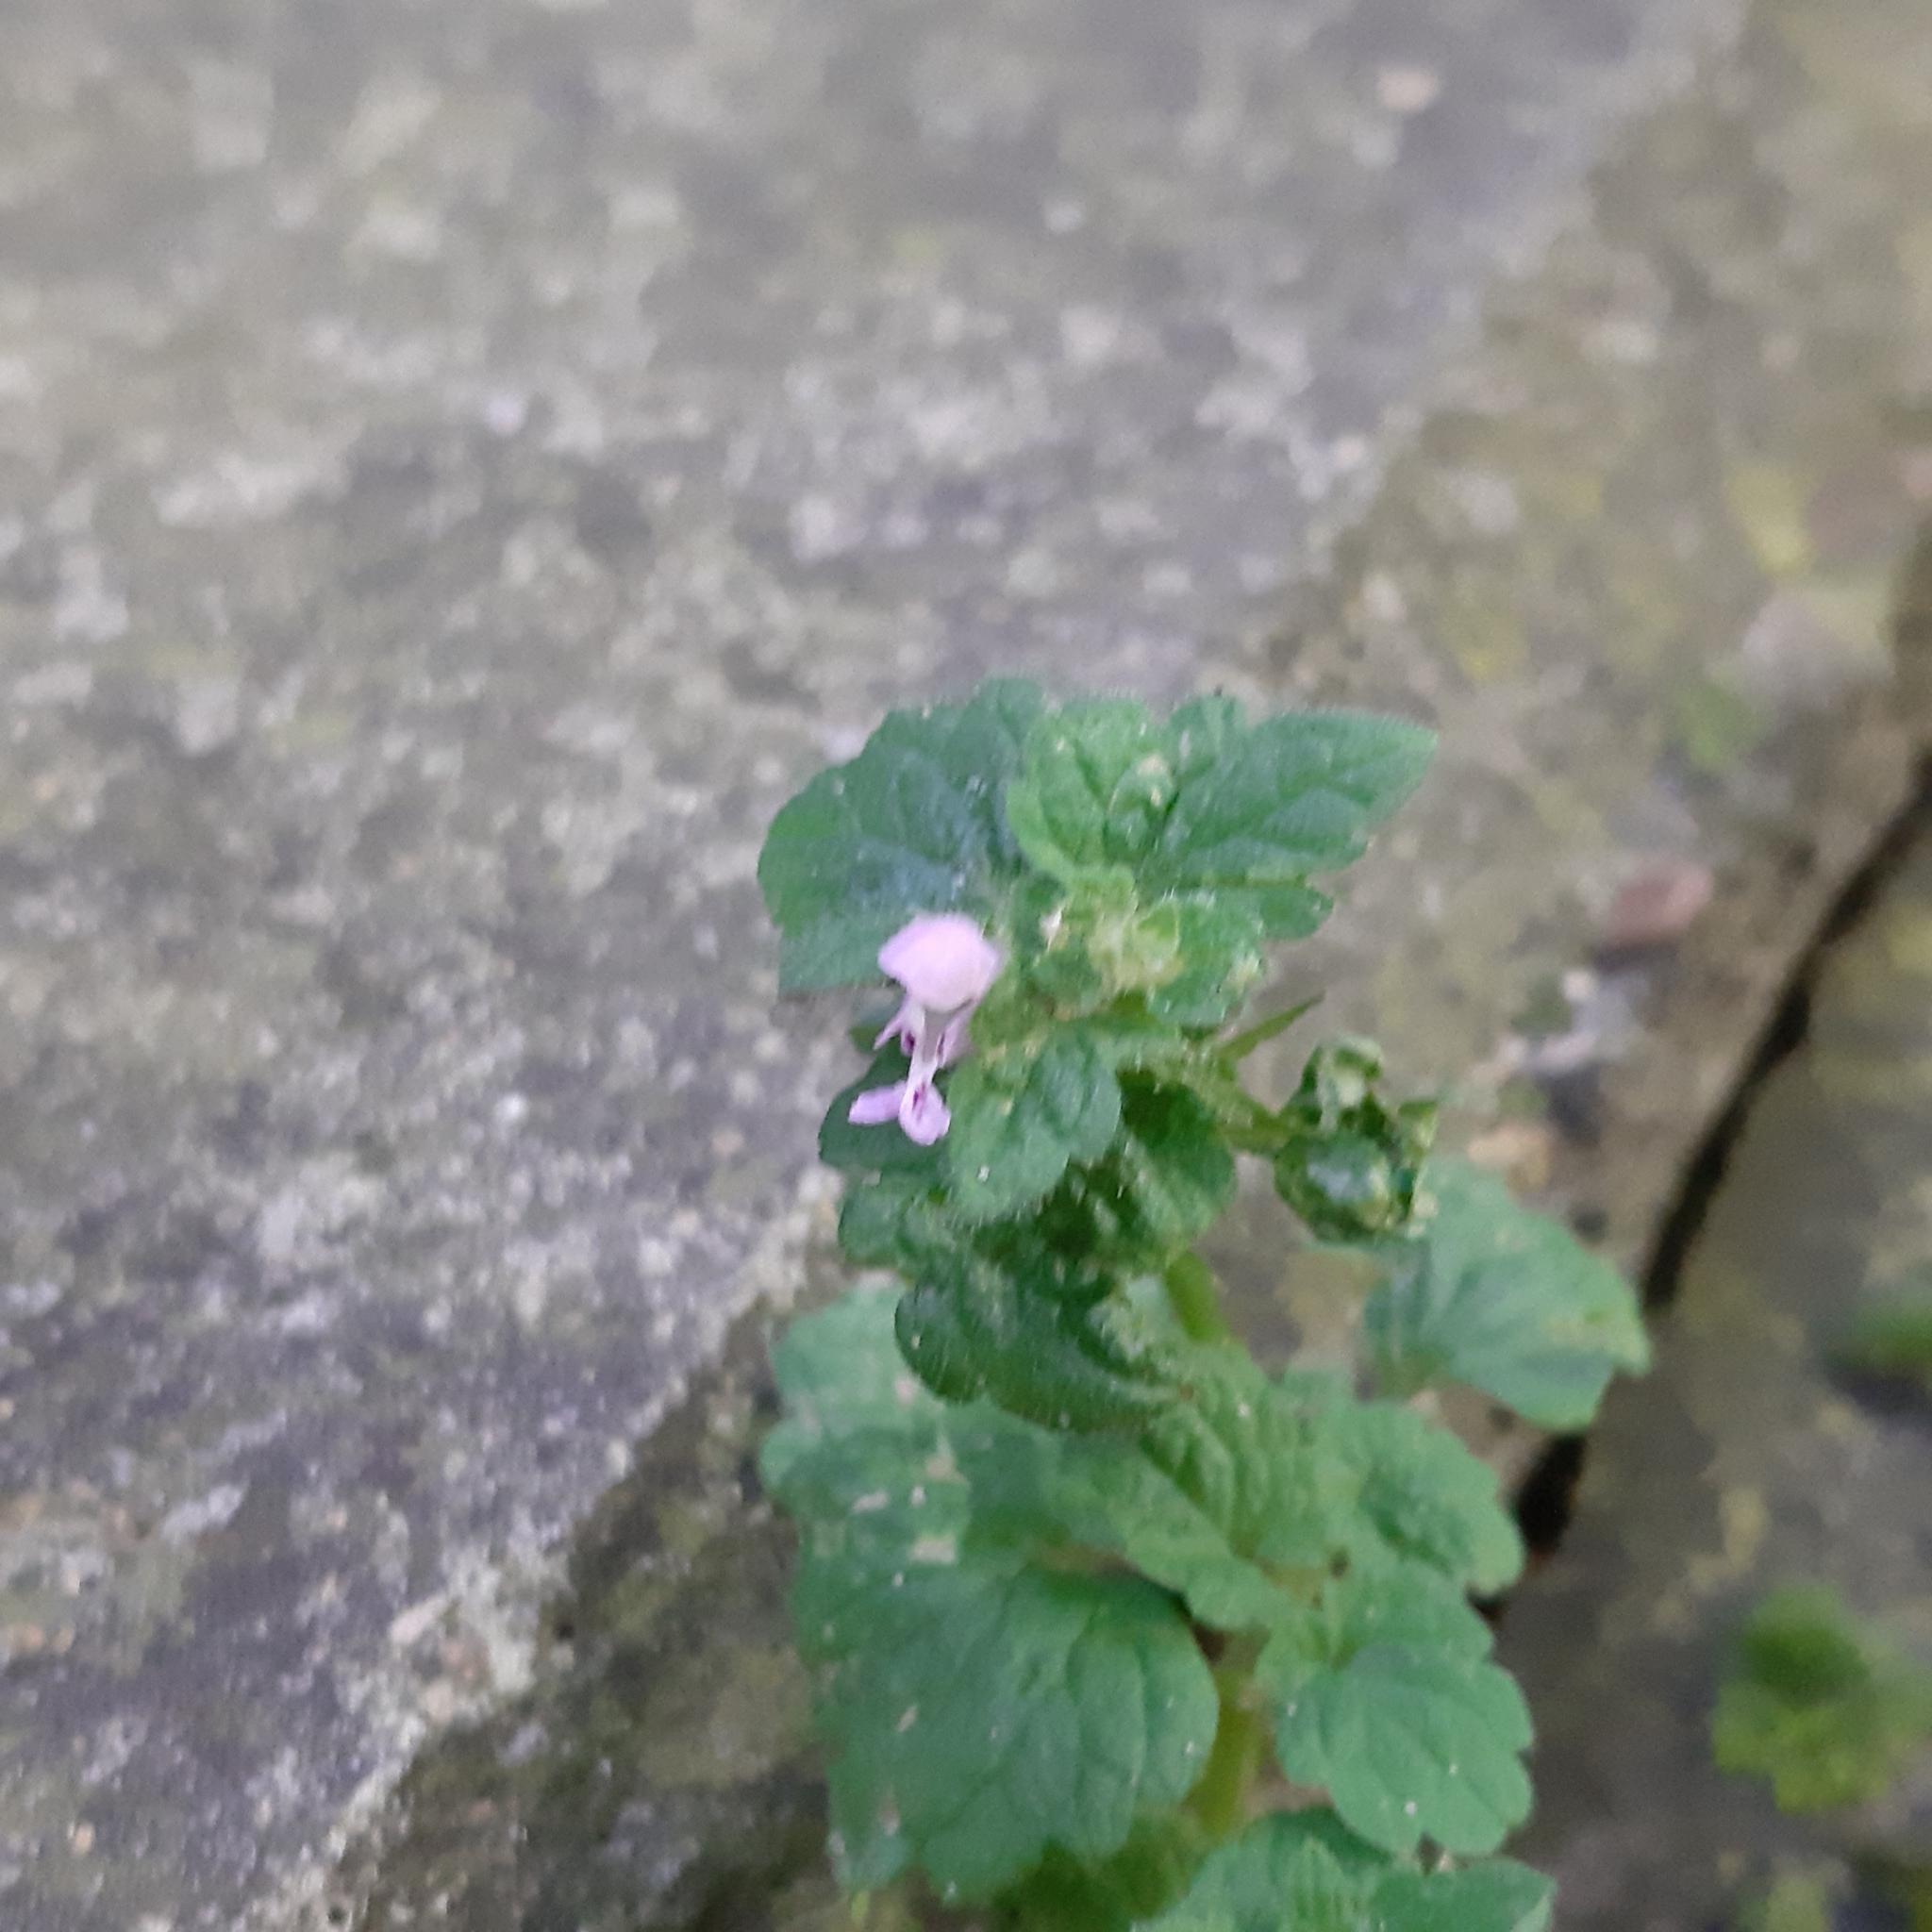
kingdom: Plantae
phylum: Tracheophyta
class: Magnoliopsida
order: Lamiales
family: Lamiaceae
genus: Lamium
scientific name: Lamium purpureum
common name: Red dead-nettle
